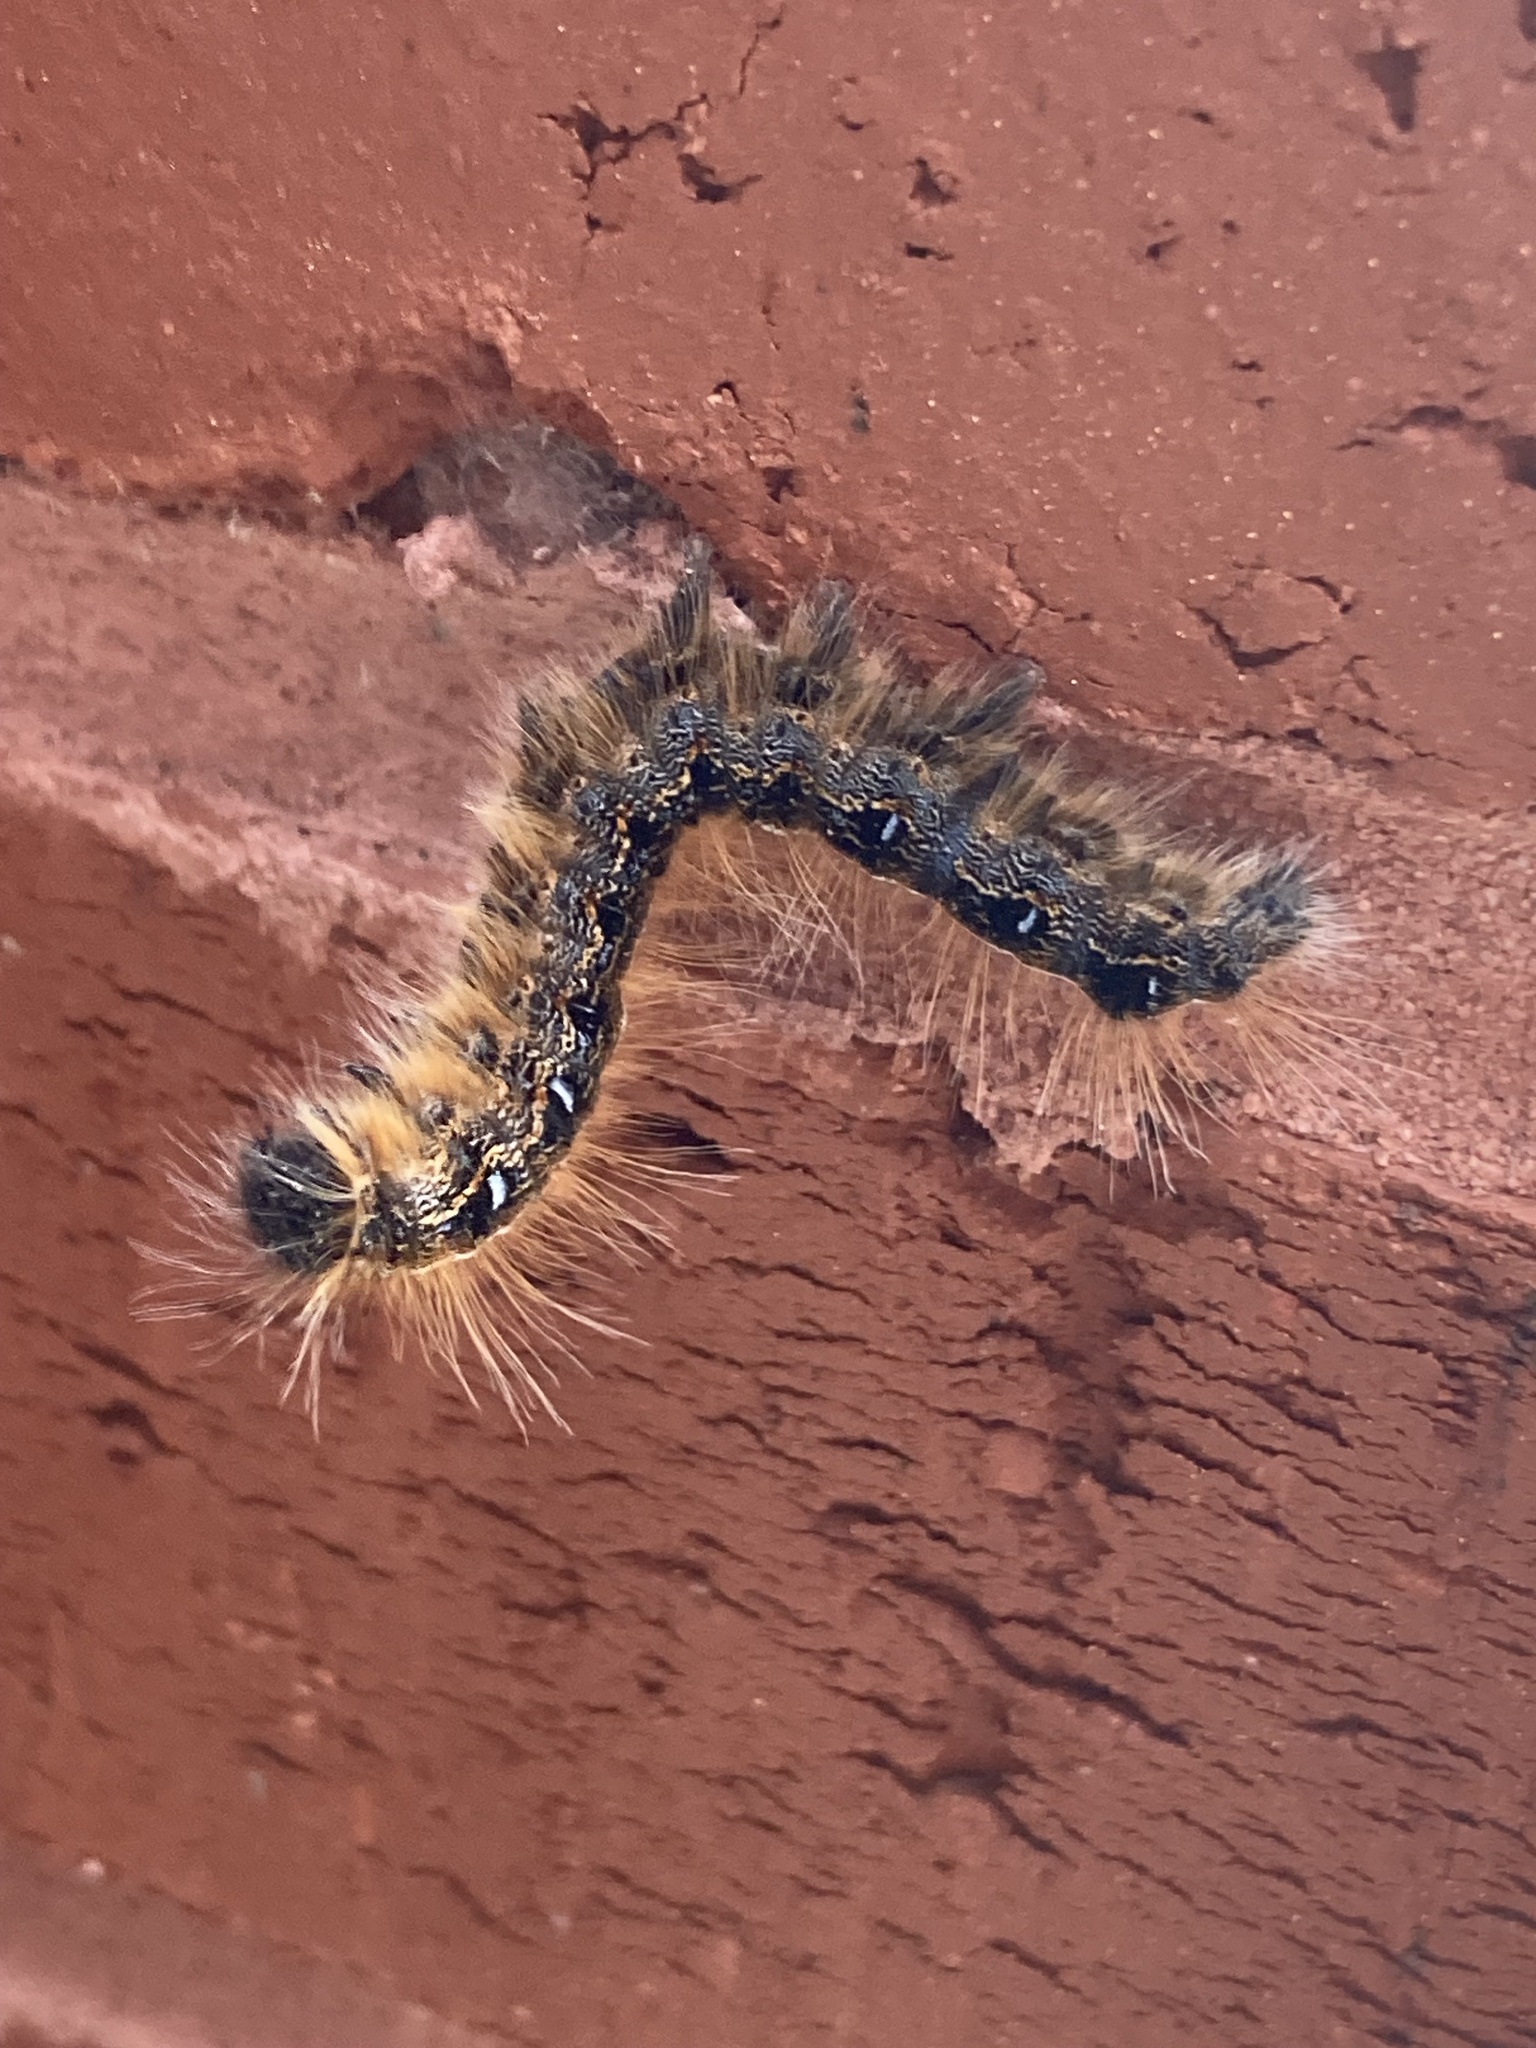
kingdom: Animalia
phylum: Arthropoda
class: Insecta
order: Lepidoptera
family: Lasiocampidae
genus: Malacosoma
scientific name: Malacosoma americana
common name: Eastern tent caterpillar moth
